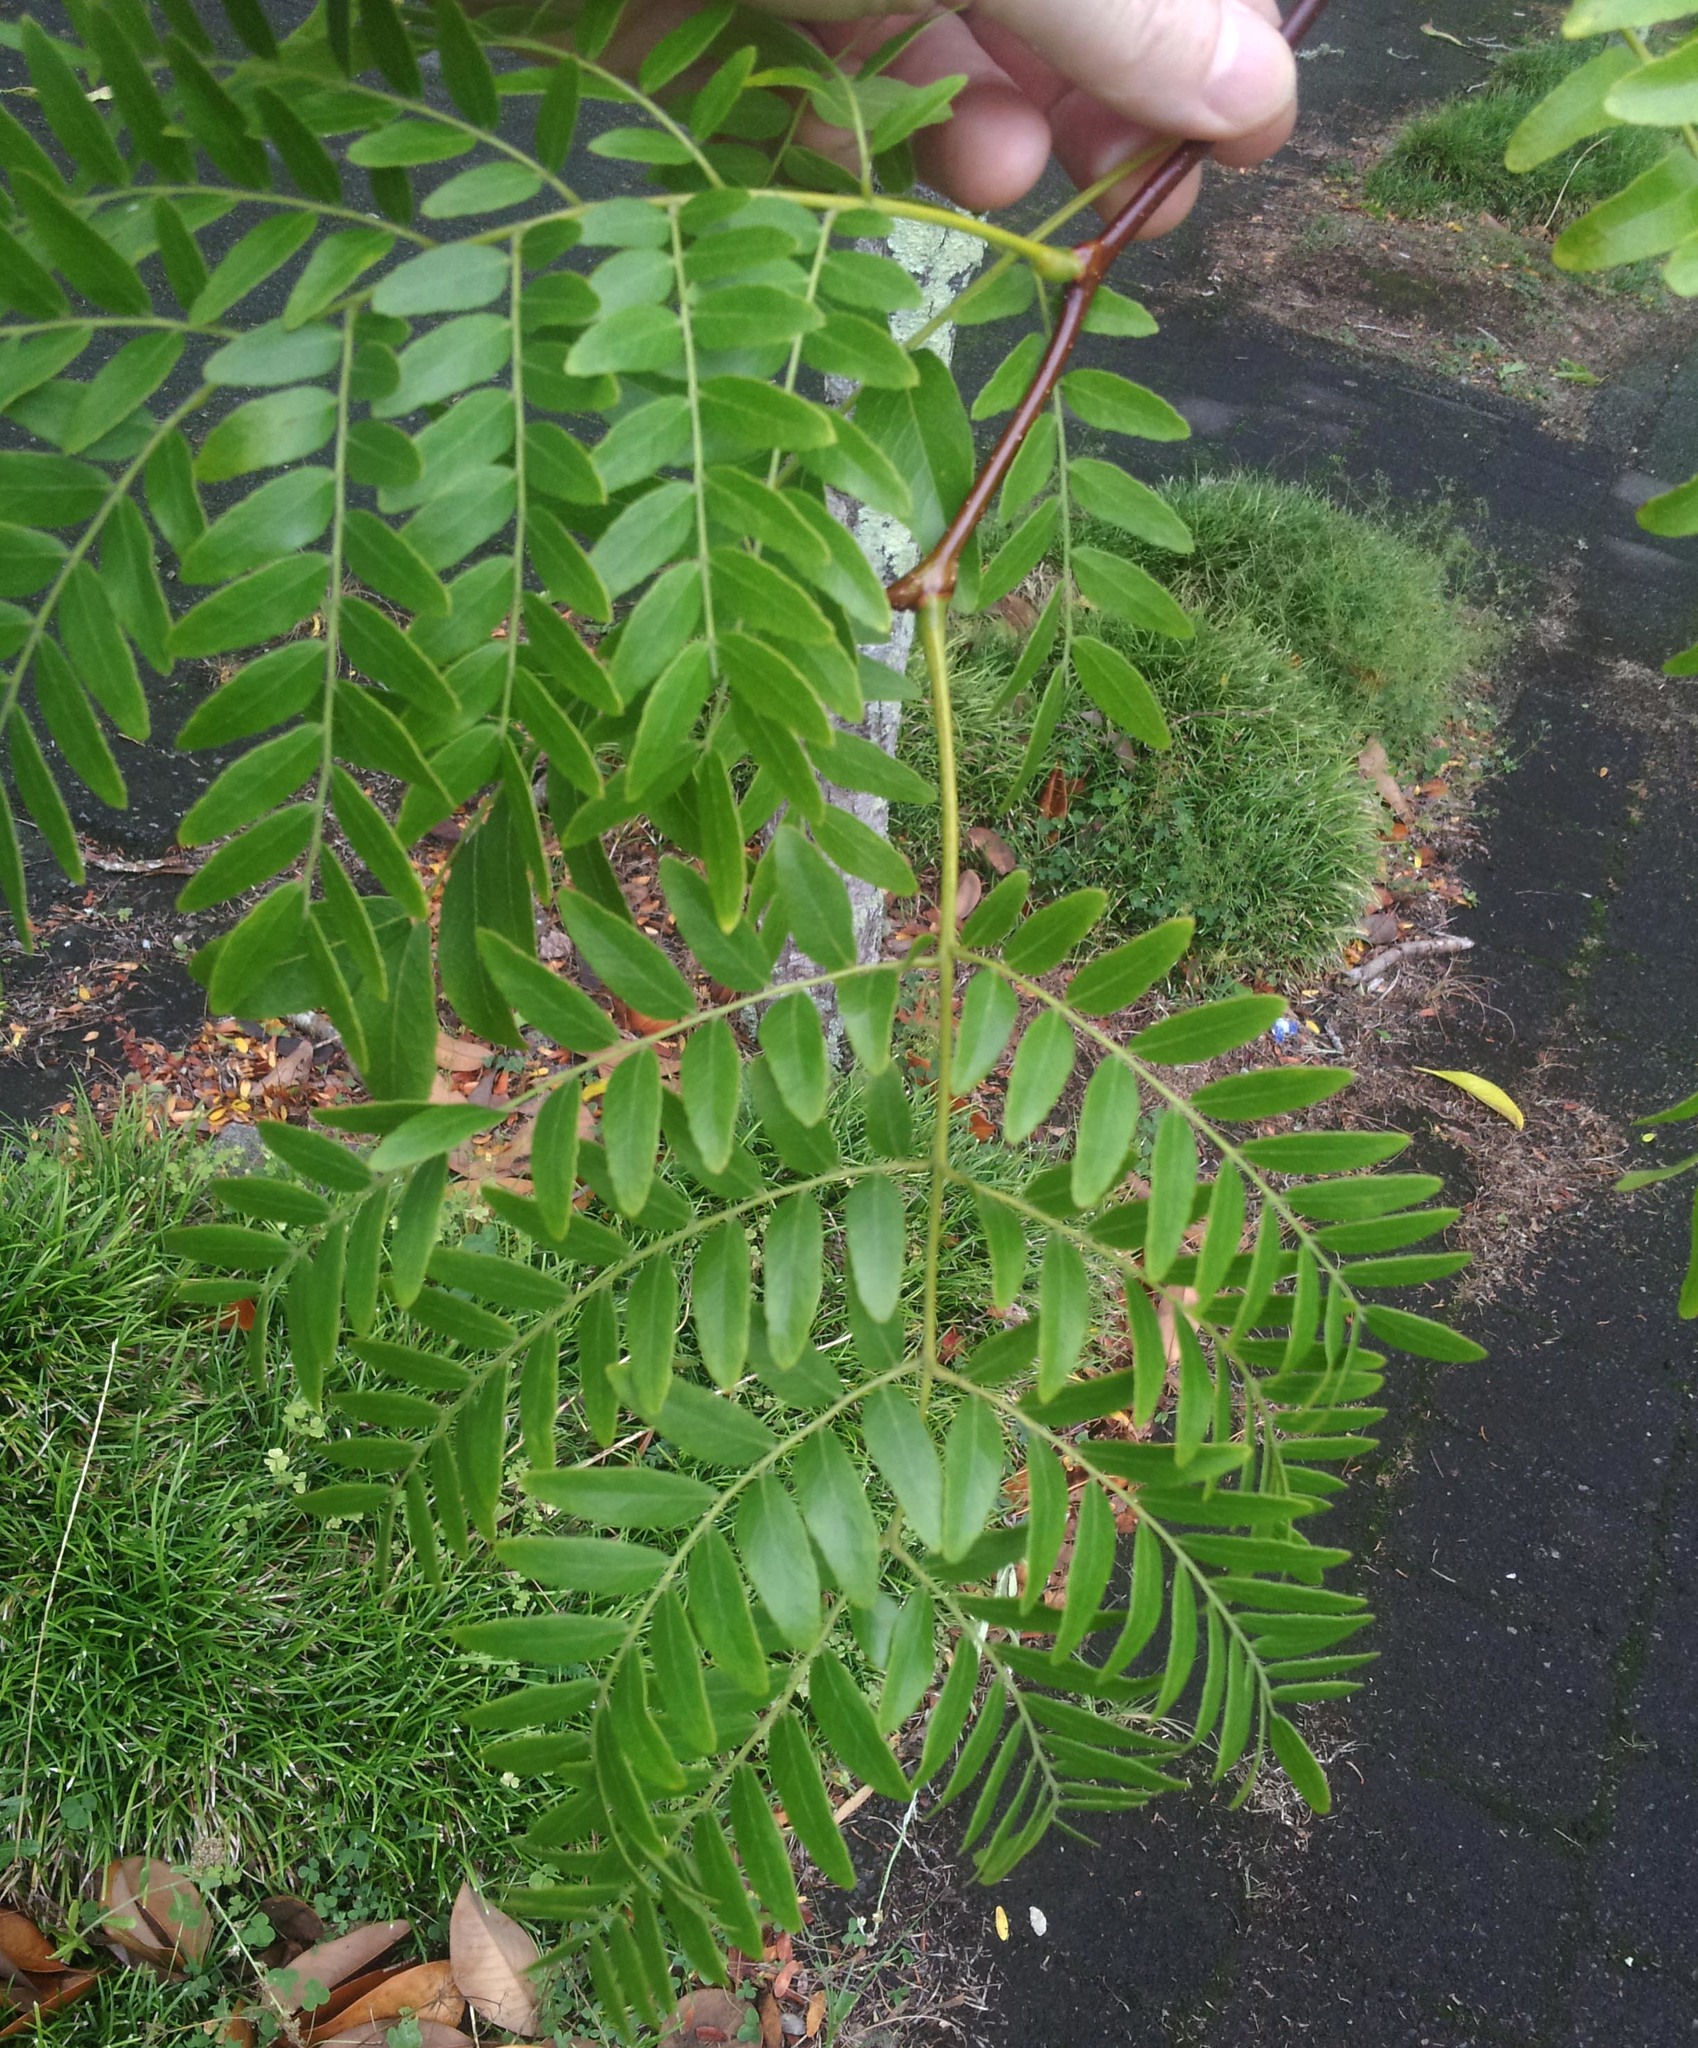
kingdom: Plantae
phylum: Tracheophyta
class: Magnoliopsida
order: Fabales
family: Fabaceae
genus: Gleditsia
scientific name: Gleditsia triacanthos
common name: Common honeylocust
